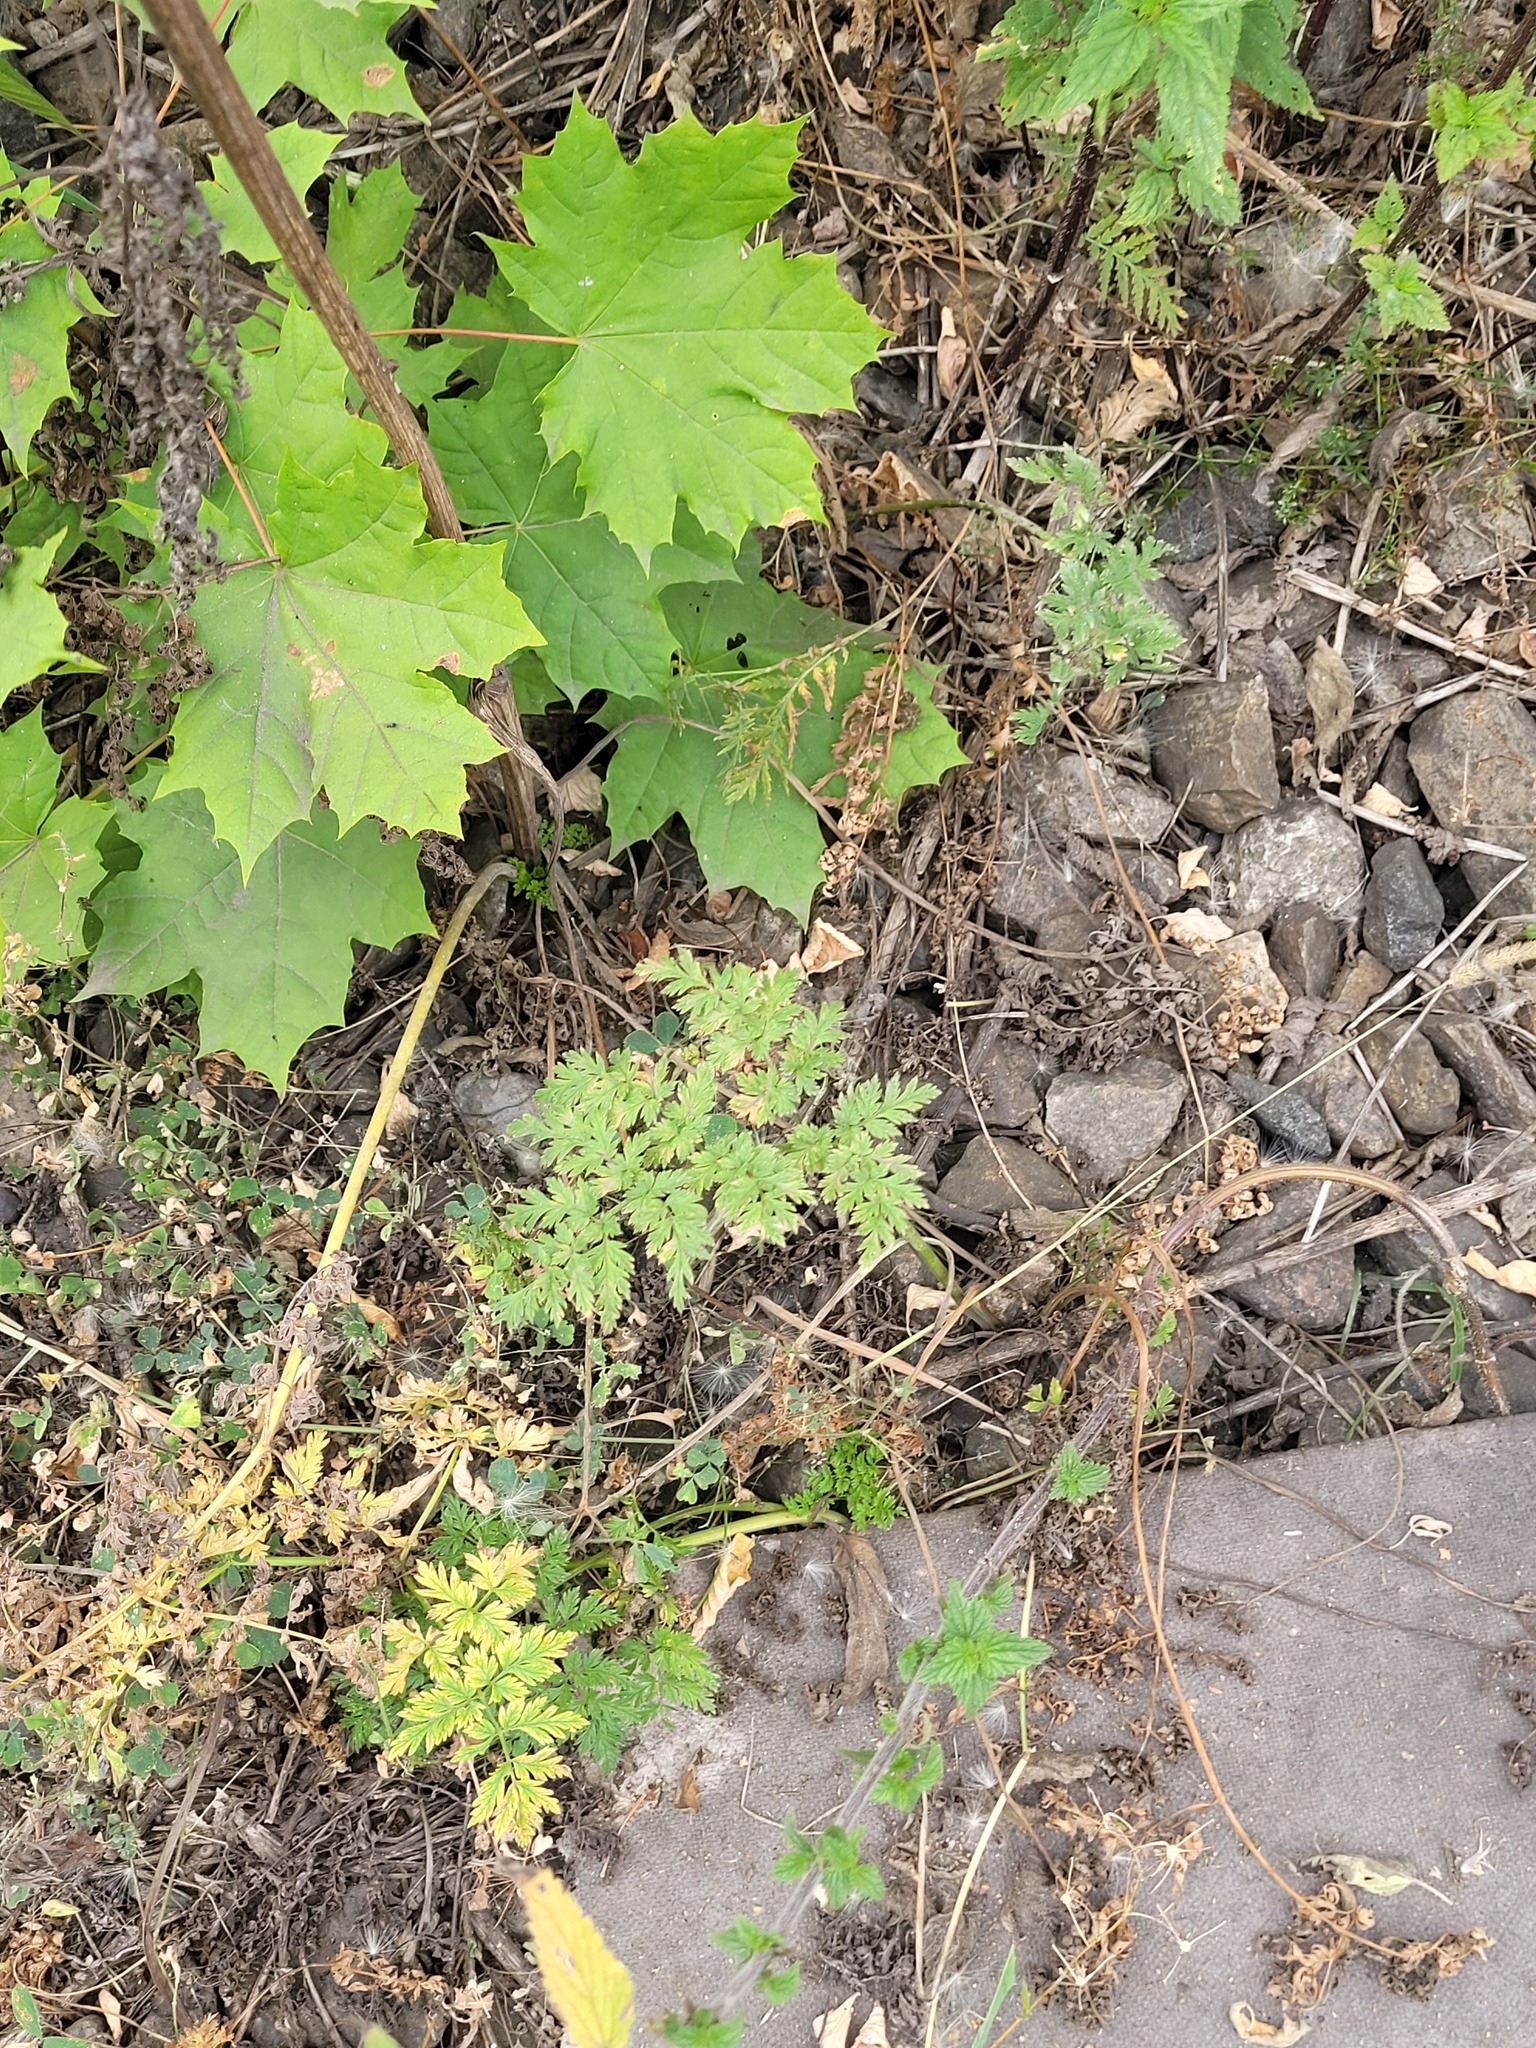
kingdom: Plantae
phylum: Tracheophyta
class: Magnoliopsida
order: Apiales
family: Apiaceae
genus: Anthriscus
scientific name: Anthriscus sylvestris
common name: Cow parsley
